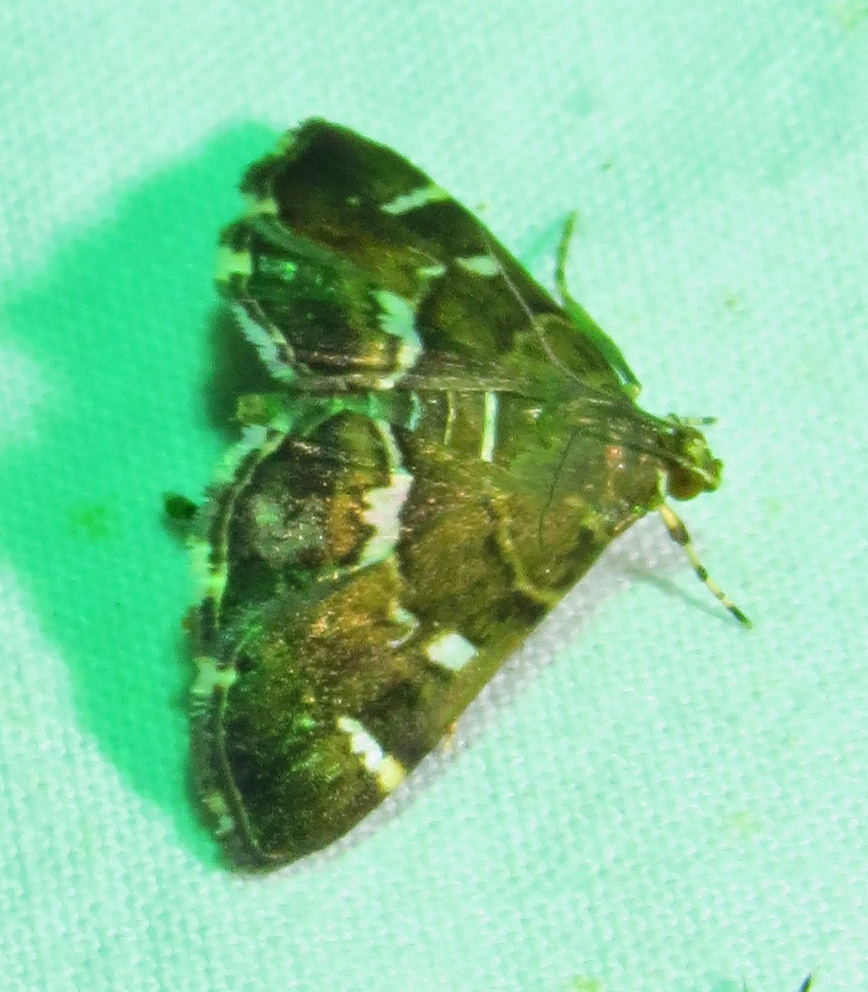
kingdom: Animalia
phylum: Arthropoda
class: Insecta
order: Lepidoptera
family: Crambidae
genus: Hymenia
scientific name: Hymenia perspectalis
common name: Spotted beet webworm
